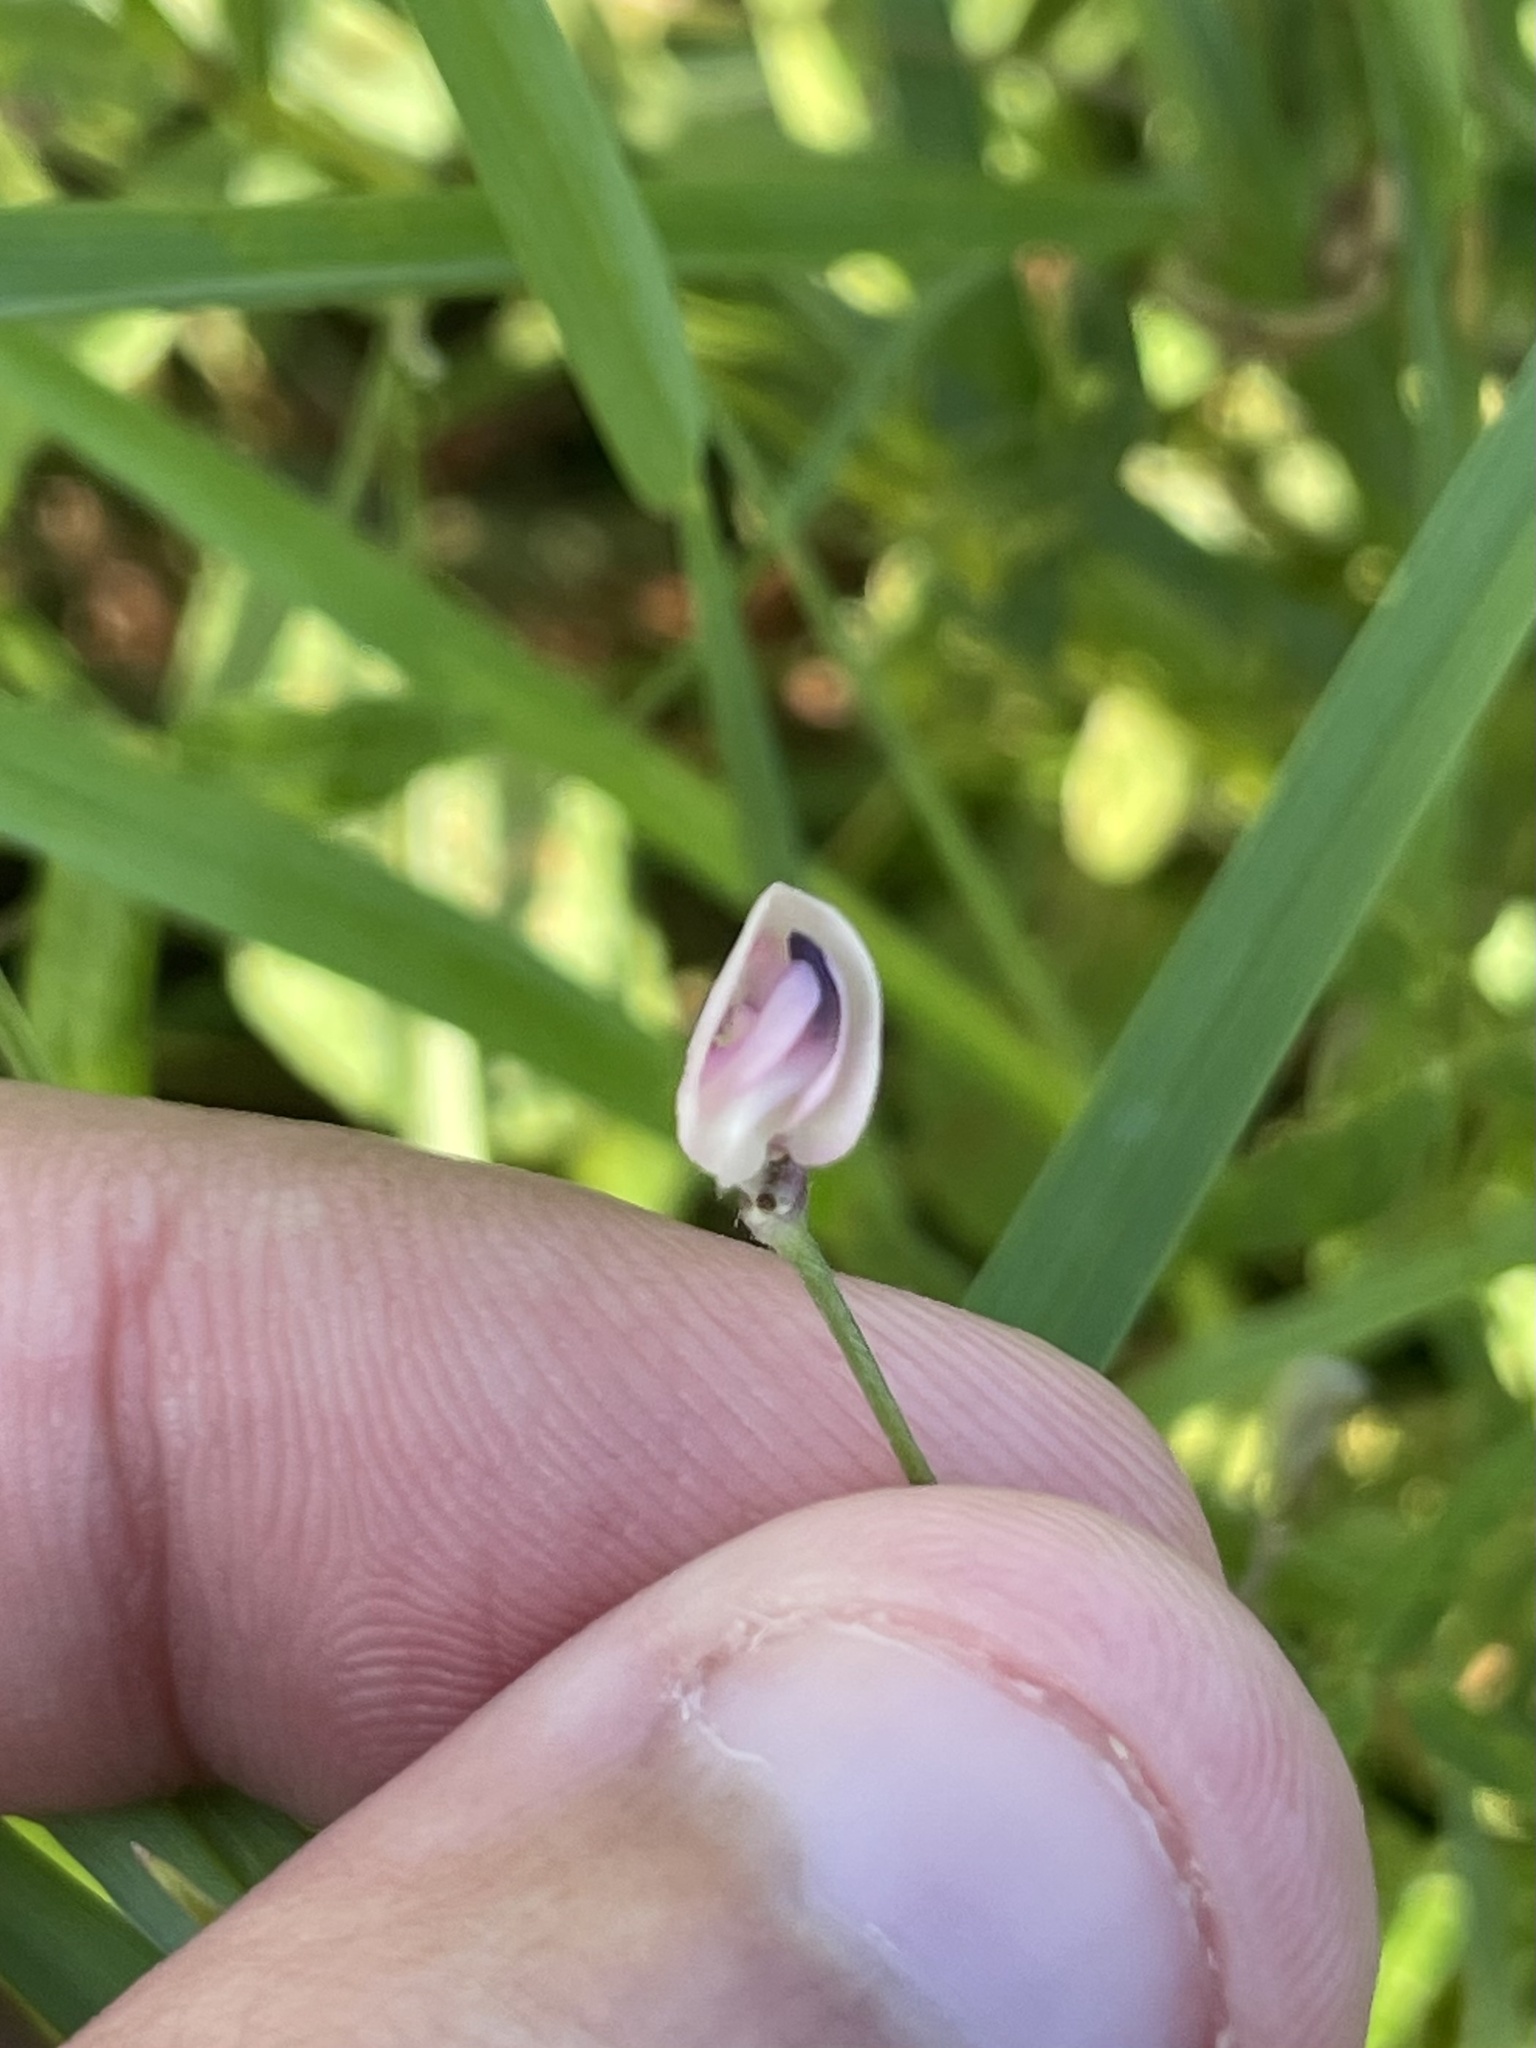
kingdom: Plantae
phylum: Tracheophyta
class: Magnoliopsida
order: Fabales
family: Fabaceae
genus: Strophostyles
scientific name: Strophostyles helvola
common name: Trailing wild bean
